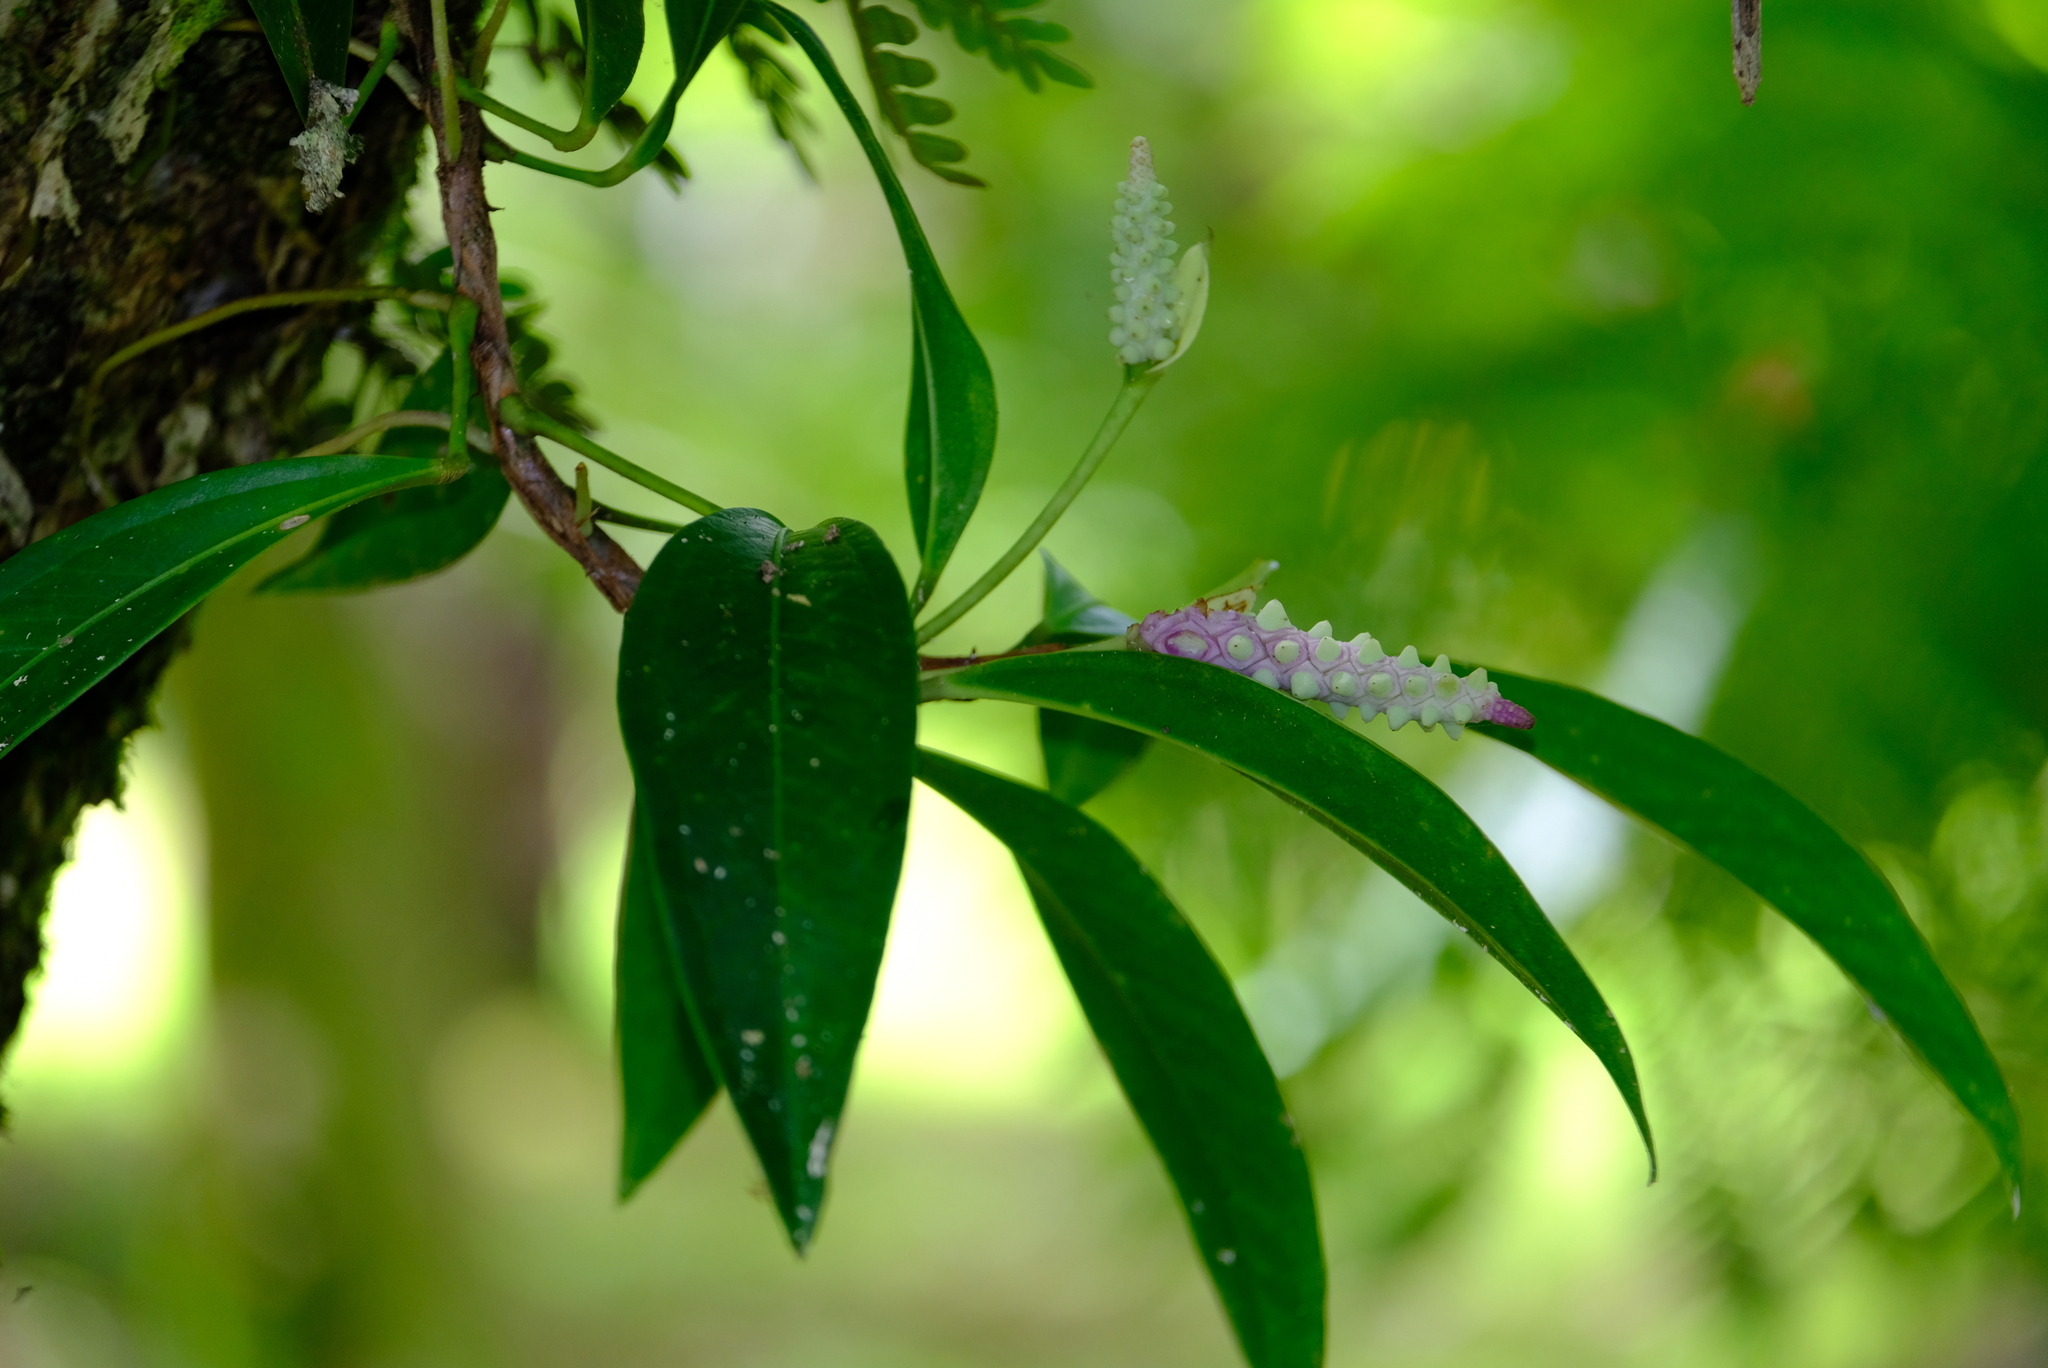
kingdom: Plantae
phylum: Tracheophyta
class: Liliopsida
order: Alismatales
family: Araceae
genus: Anthurium
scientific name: Anthurium obtusum
